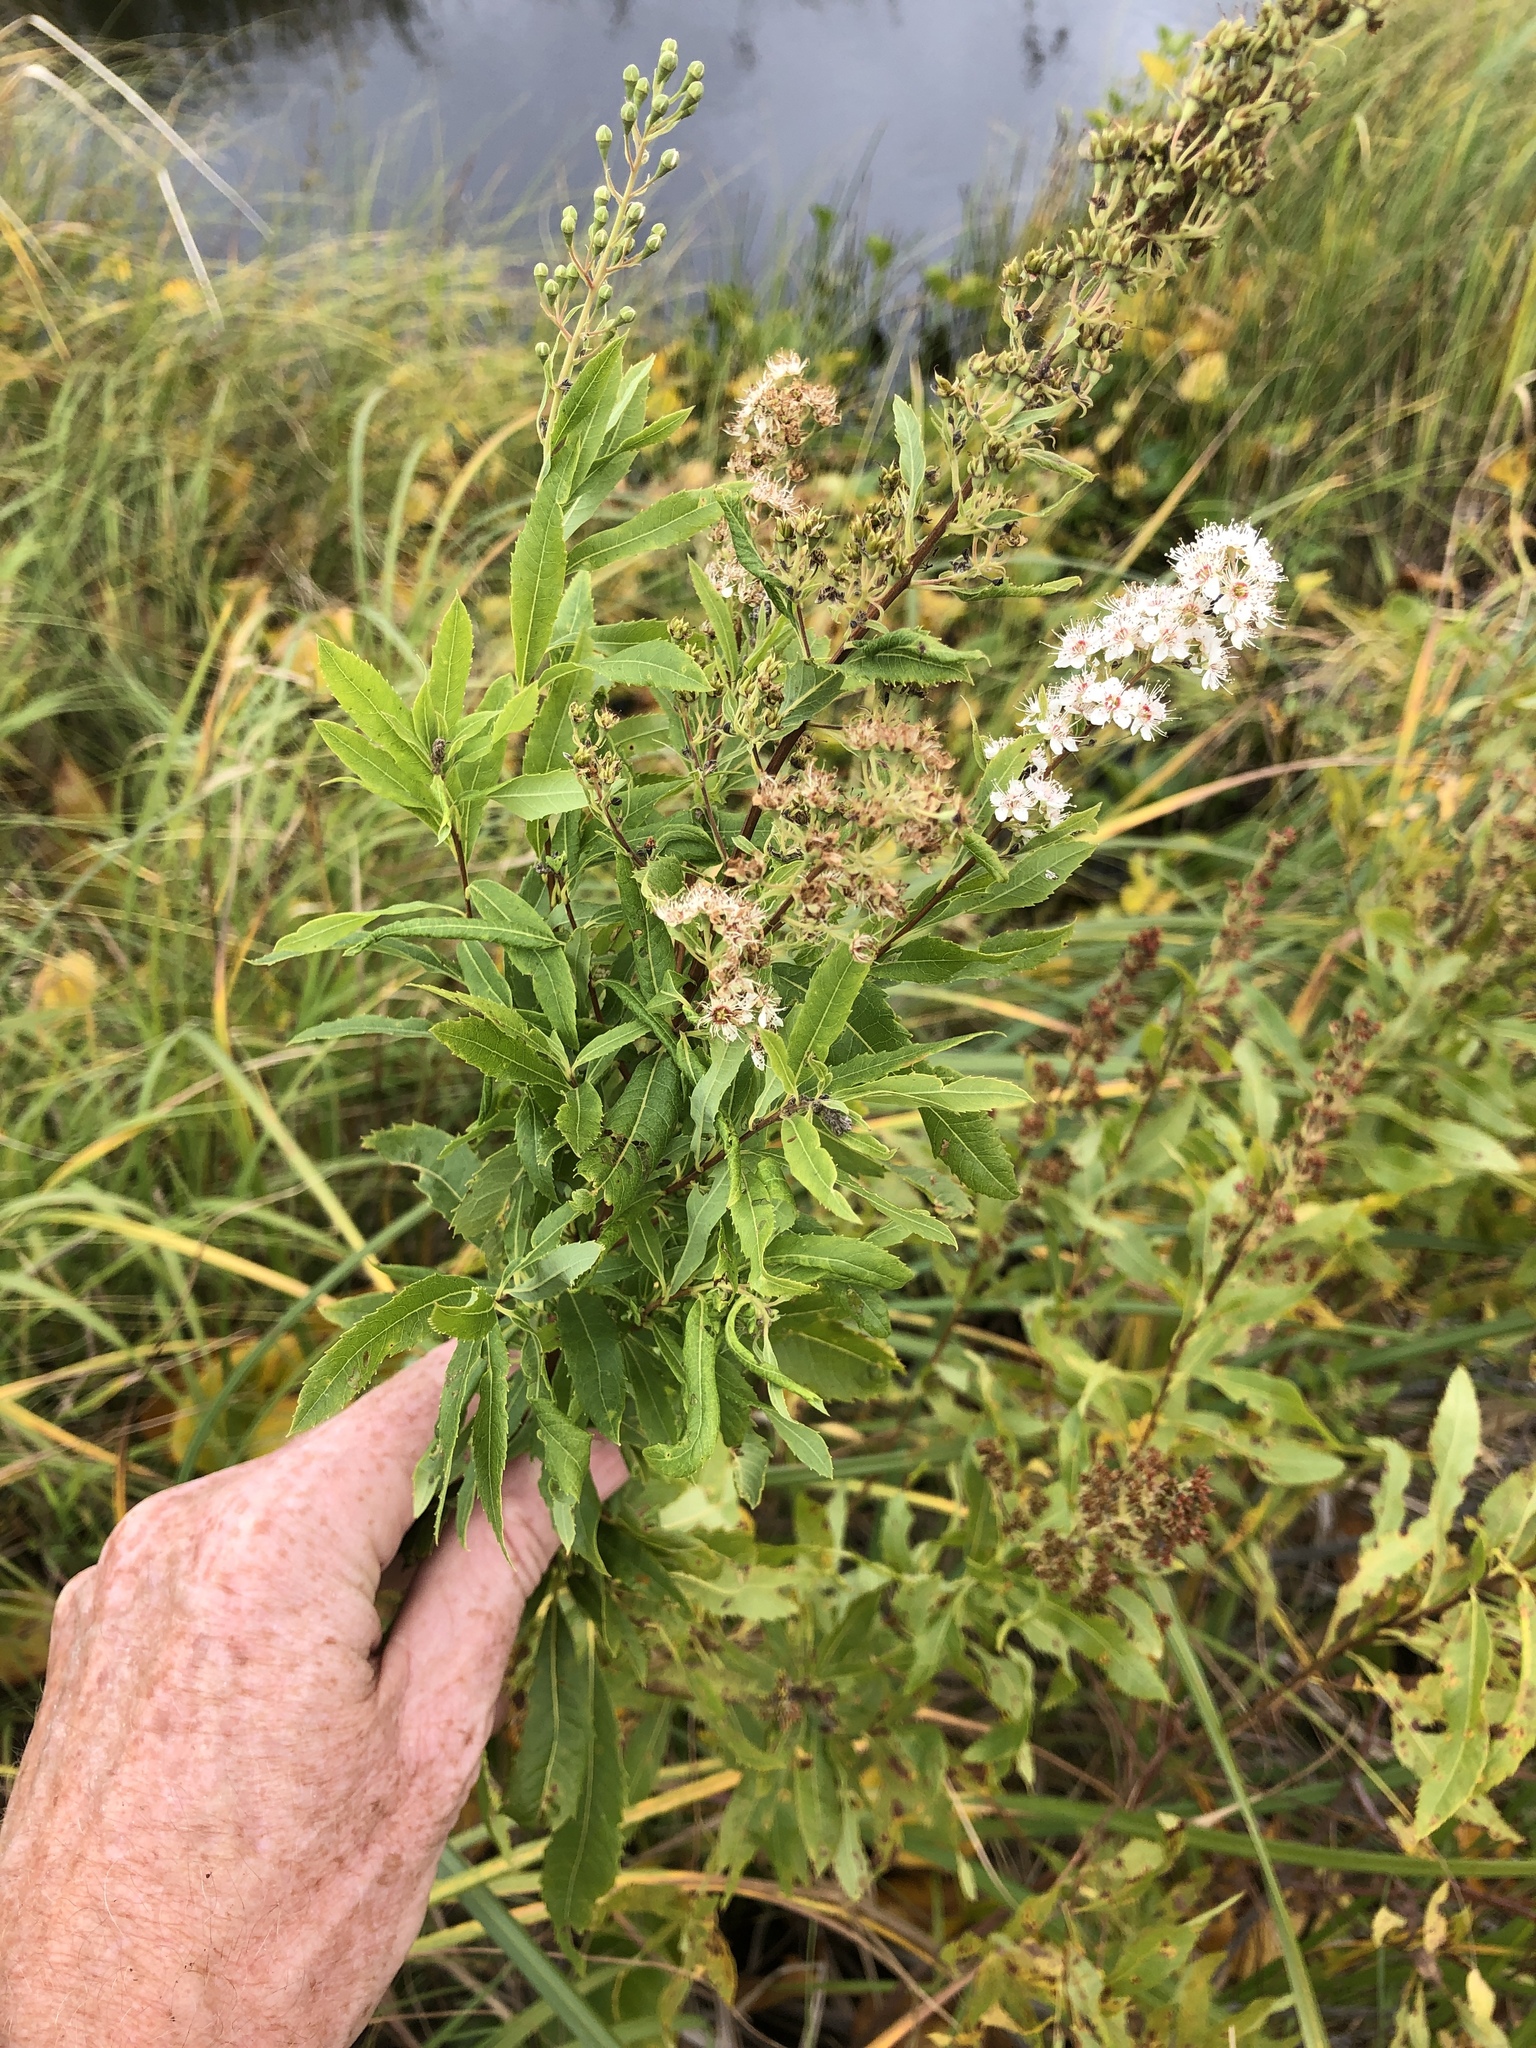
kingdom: Plantae
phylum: Tracheophyta
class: Magnoliopsida
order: Rosales
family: Rosaceae
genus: Spiraea
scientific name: Spiraea alba
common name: Pale bridewort
